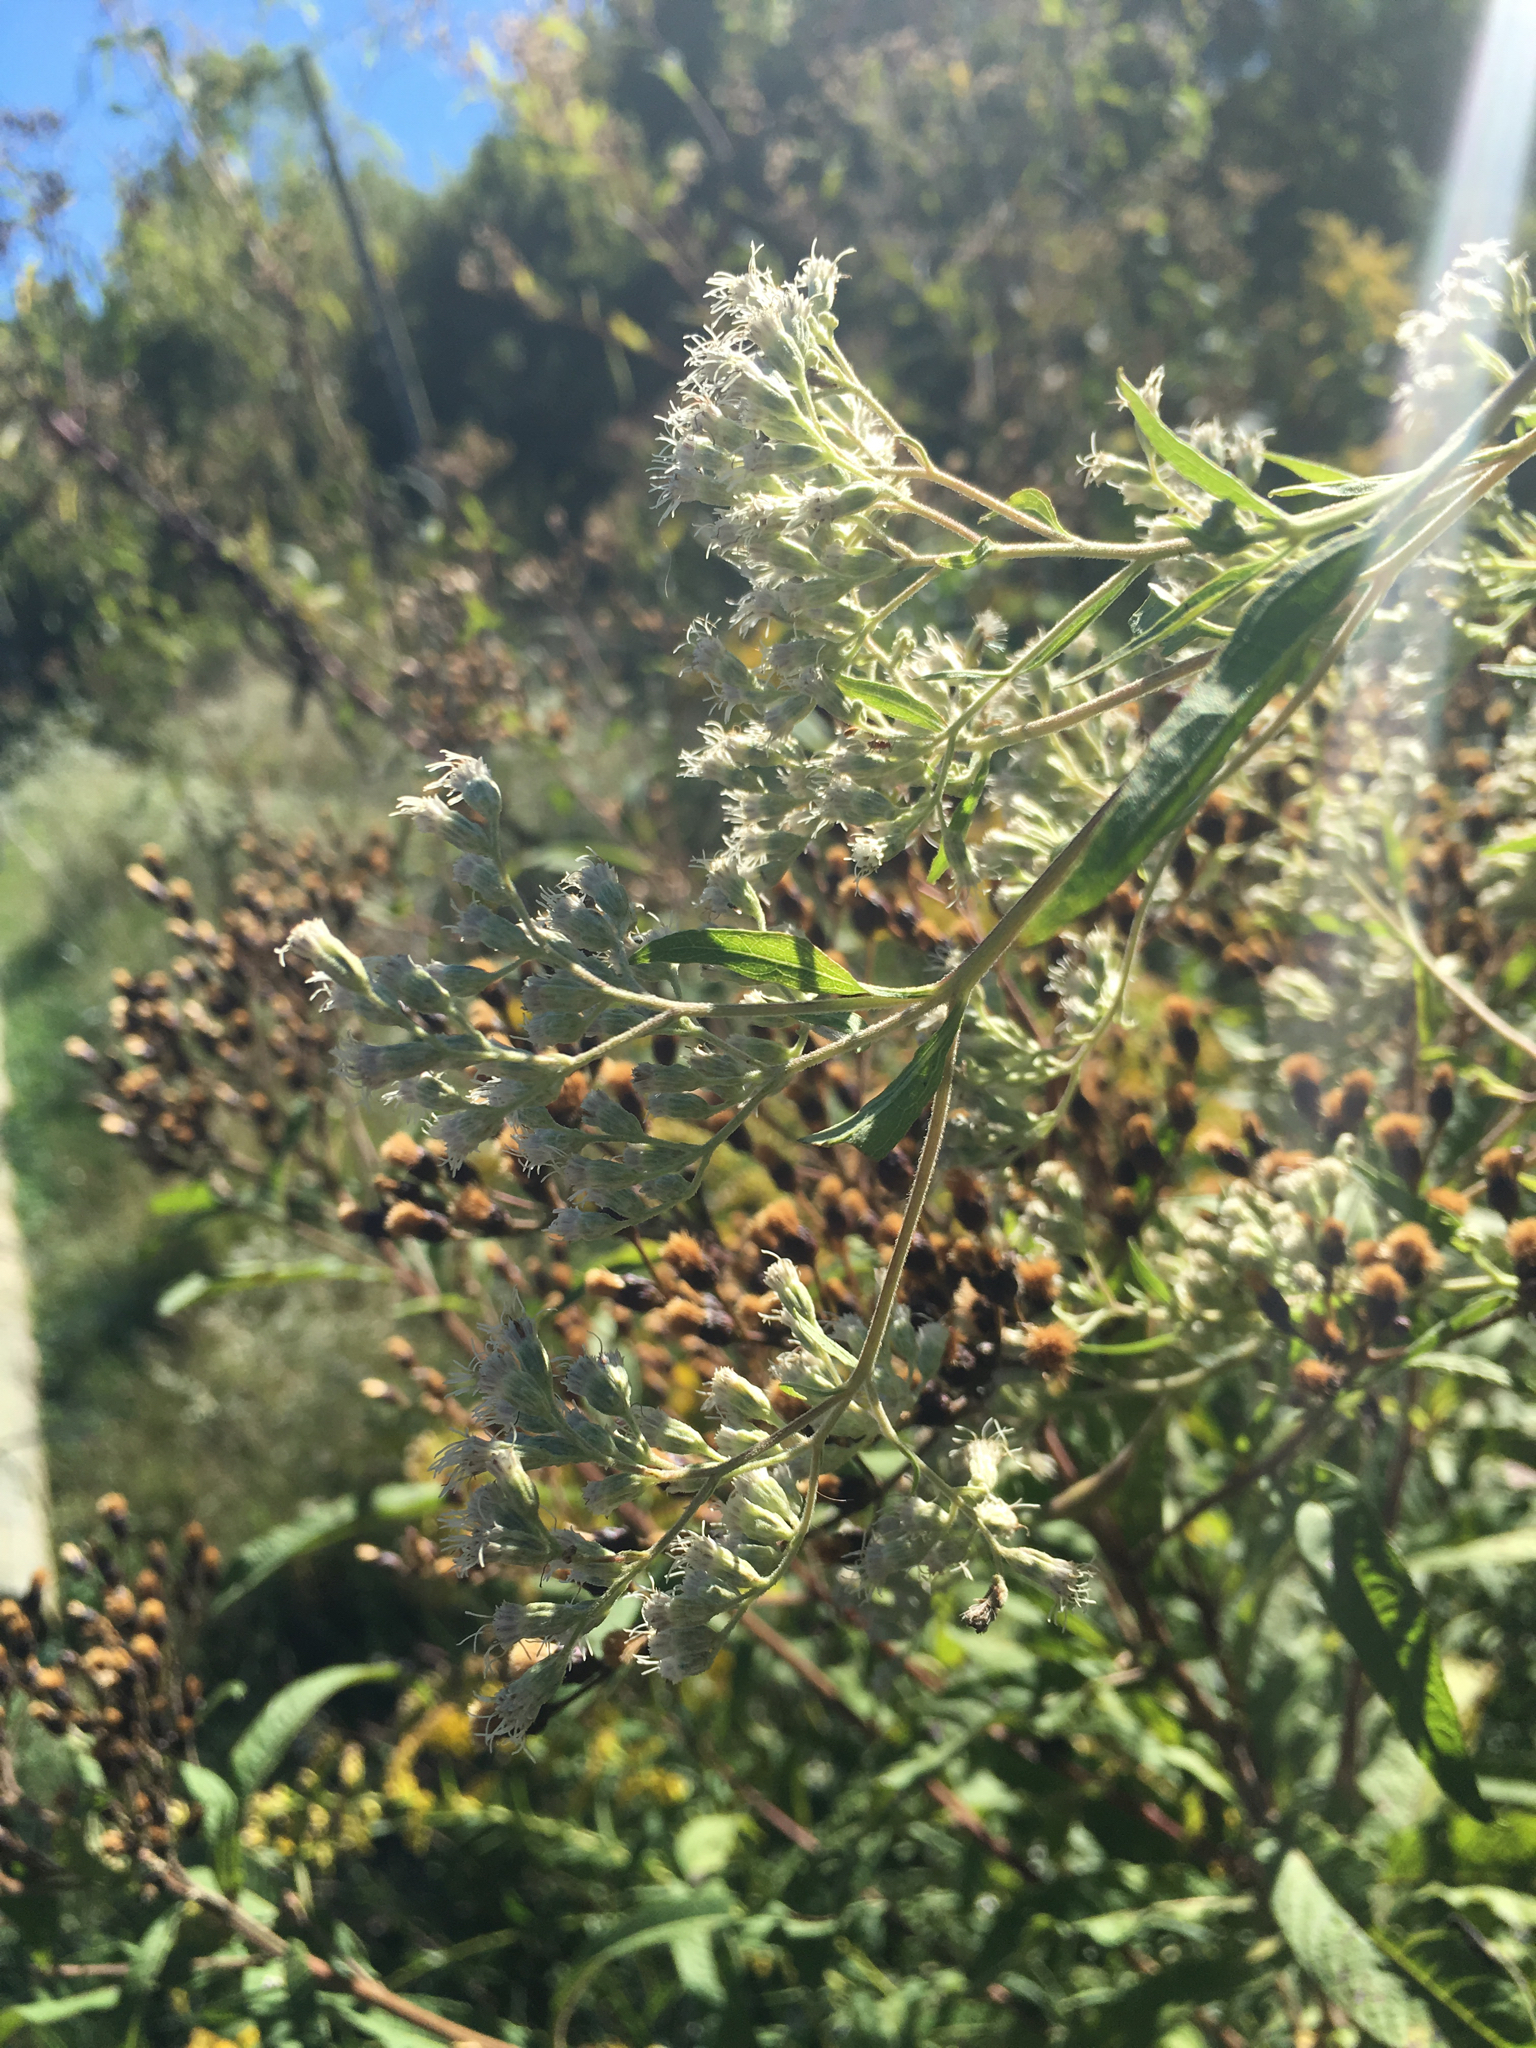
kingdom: Plantae
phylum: Tracheophyta
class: Magnoliopsida
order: Asterales
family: Asteraceae
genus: Eupatorium
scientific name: Eupatorium serotinum
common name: Late boneset
